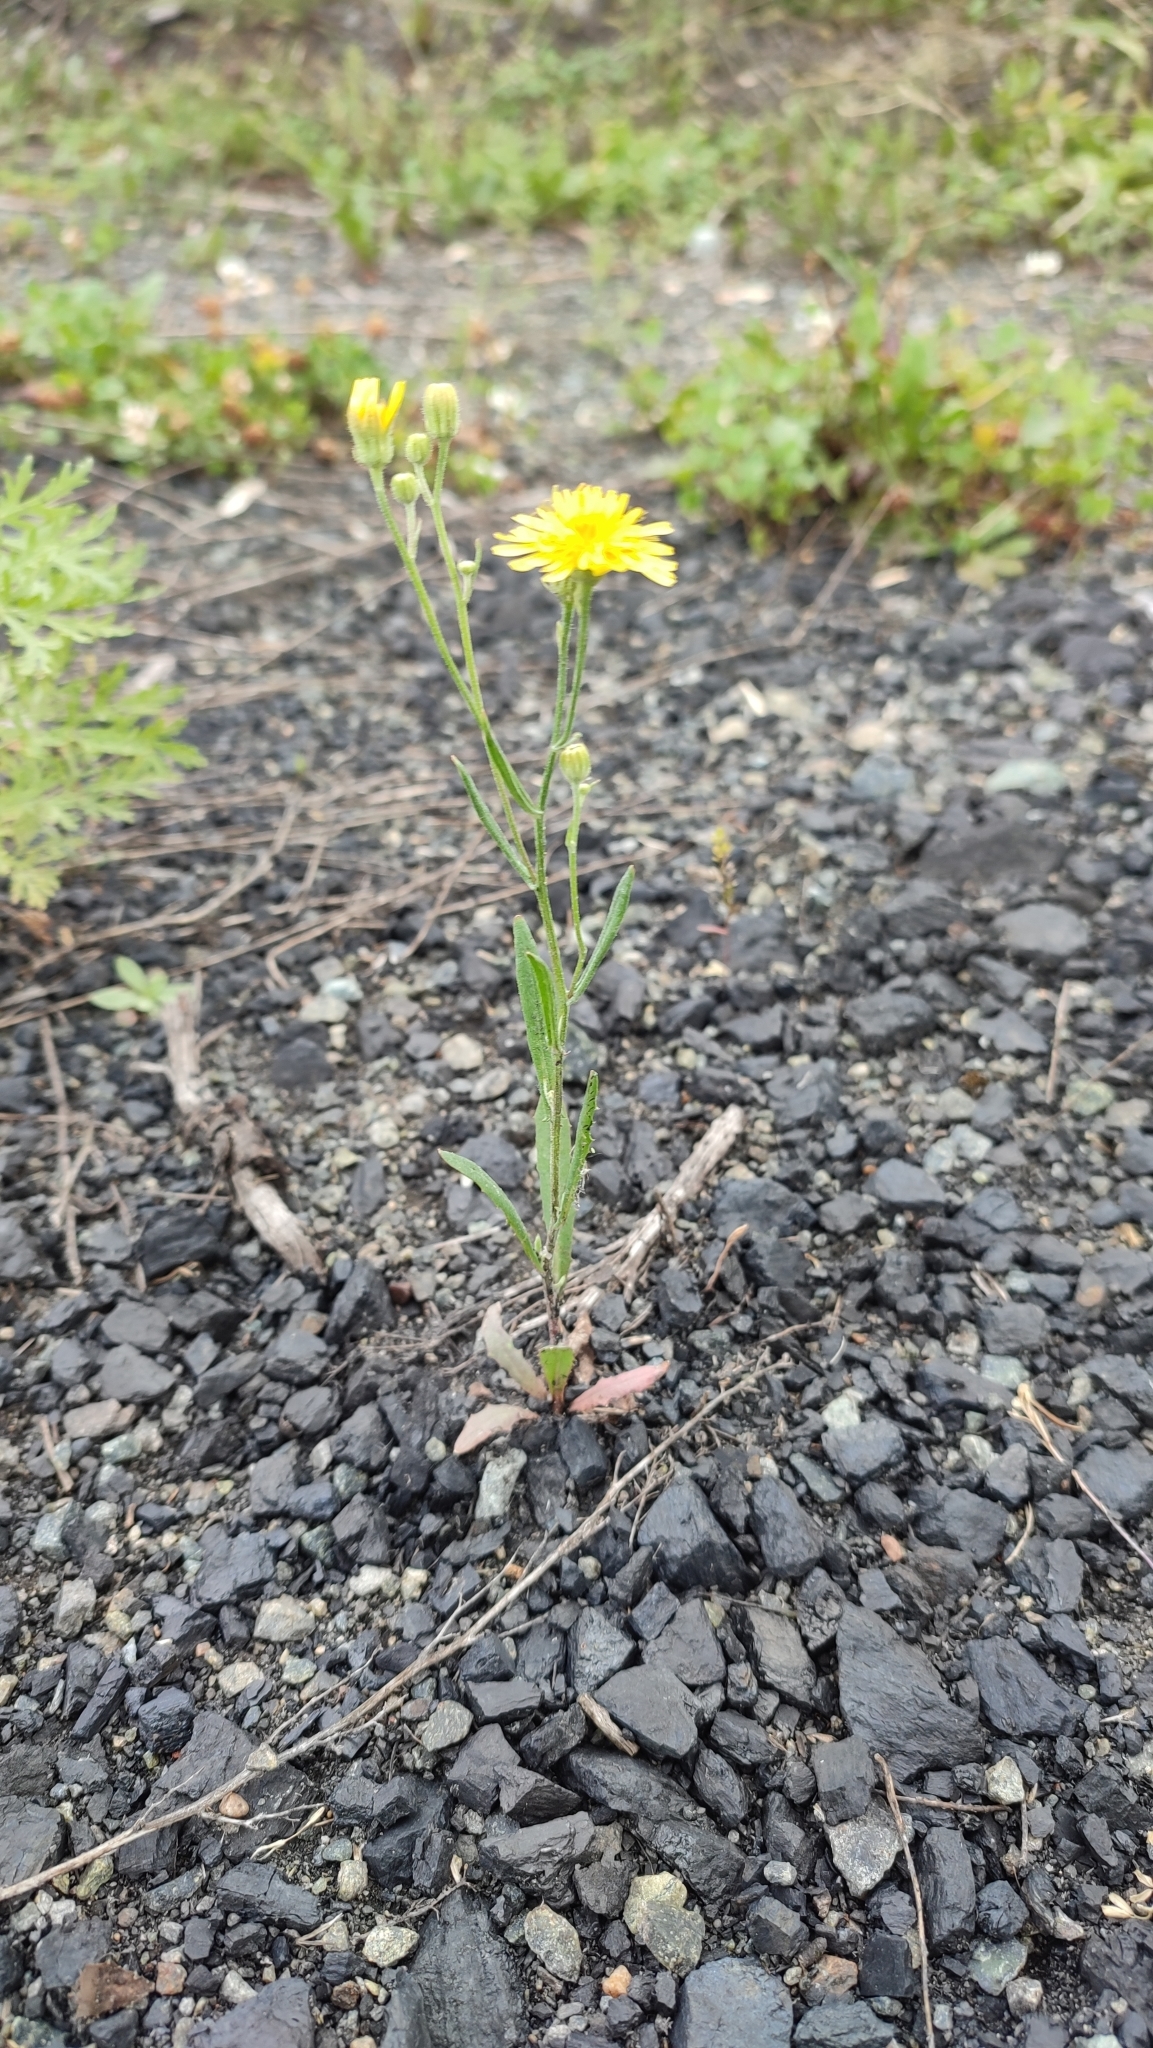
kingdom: Plantae
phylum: Tracheophyta
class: Magnoliopsida
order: Asterales
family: Asteraceae
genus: Crepis
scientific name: Crepis tectorum
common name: Narrow-leaved hawk's-beard
